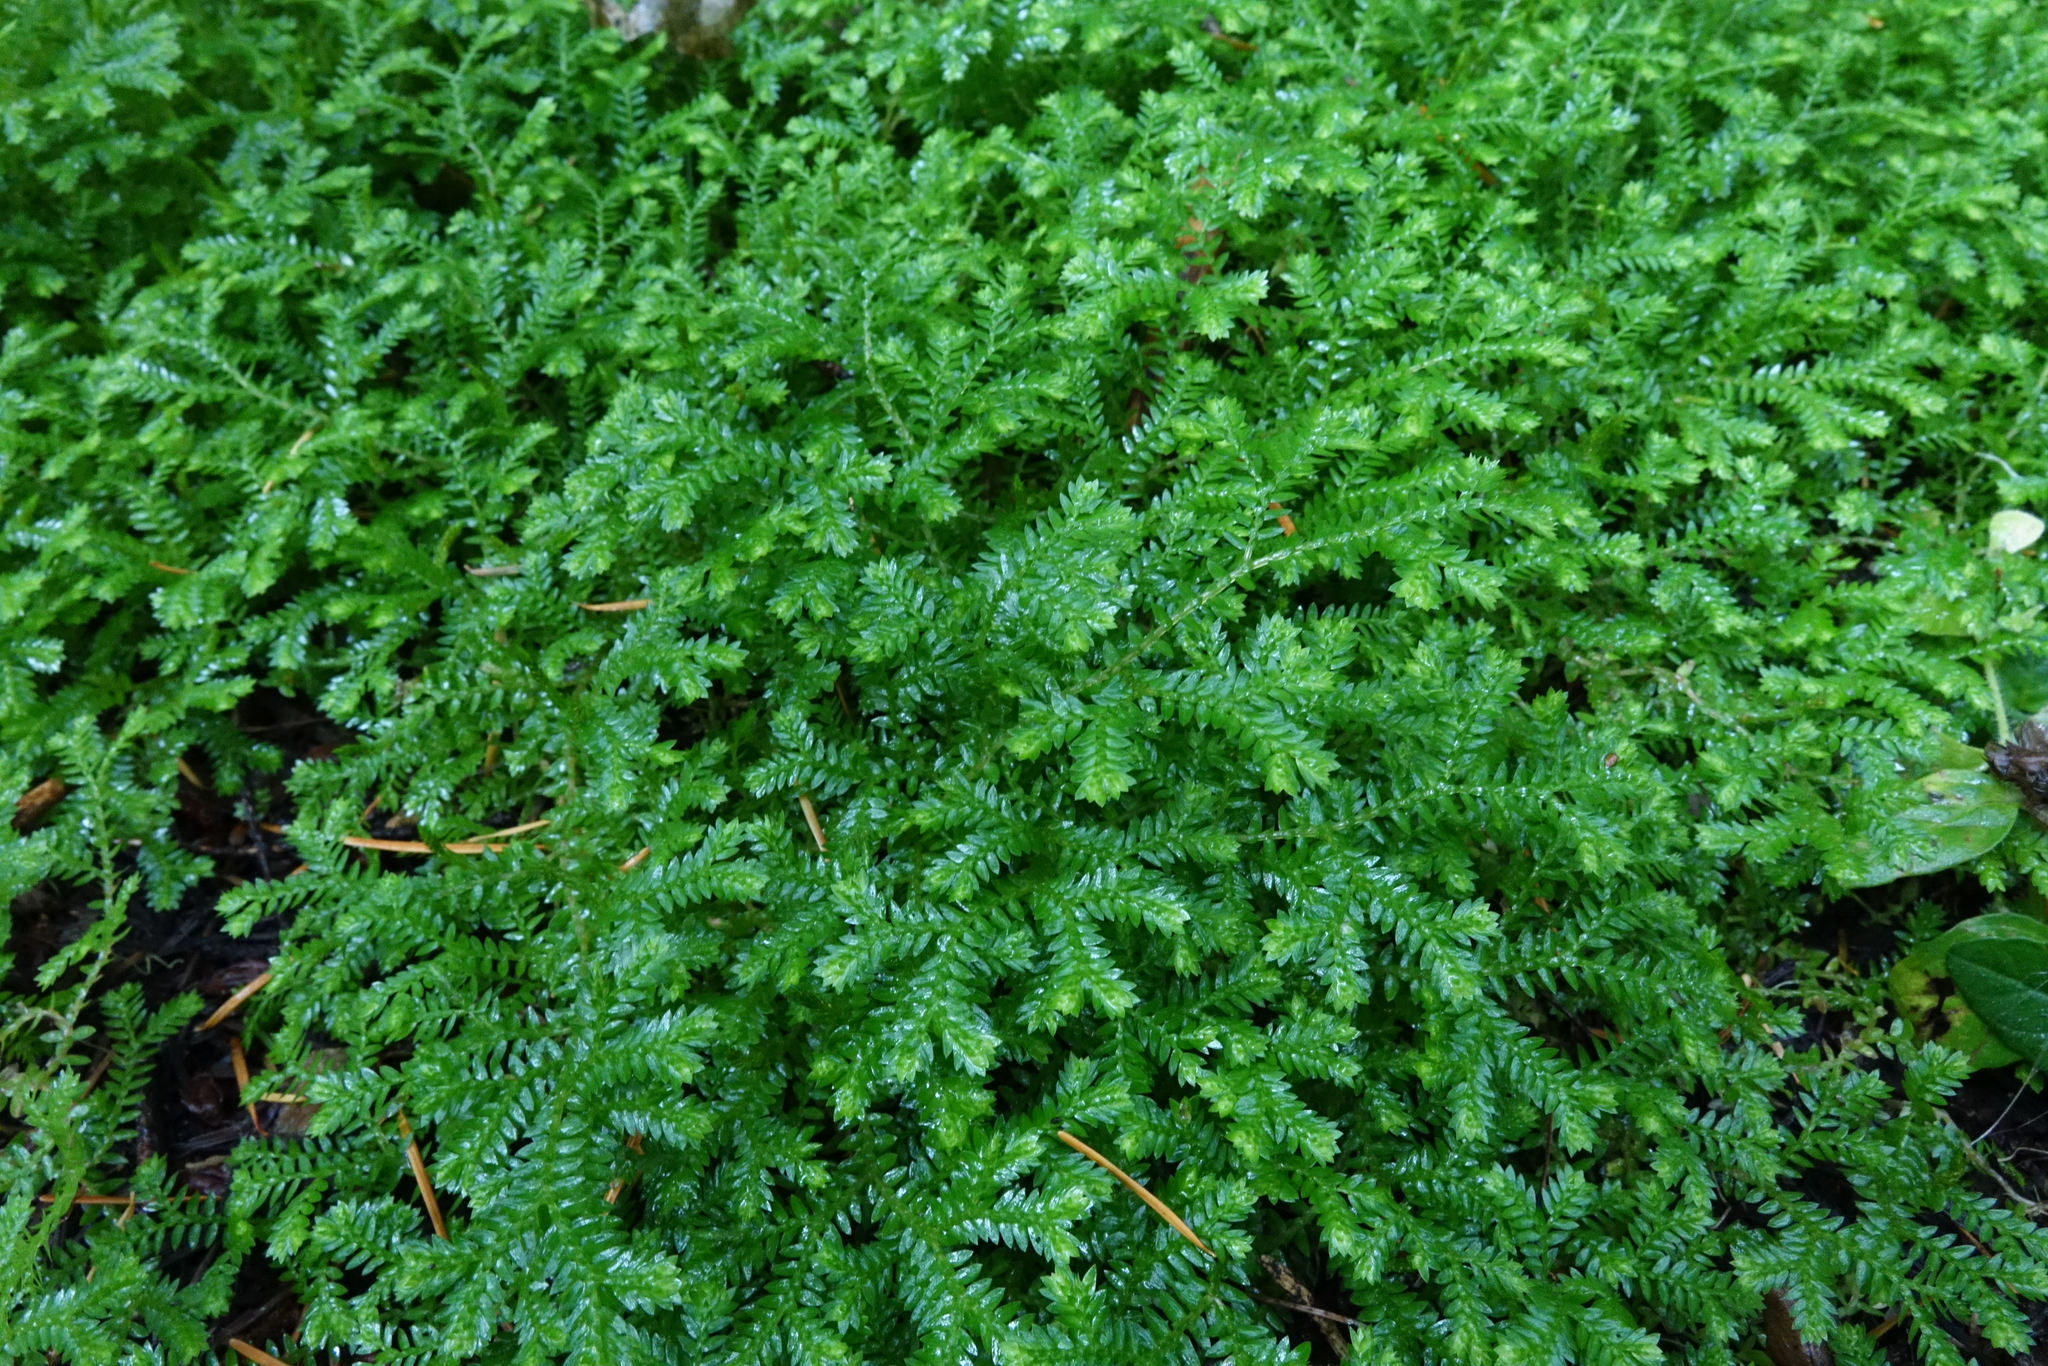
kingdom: Plantae
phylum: Tracheophyta
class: Lycopodiopsida
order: Selaginellales
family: Selaginellaceae
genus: Selaginella
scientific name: Selaginella kraussiana
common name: Krauss' spikemoss
